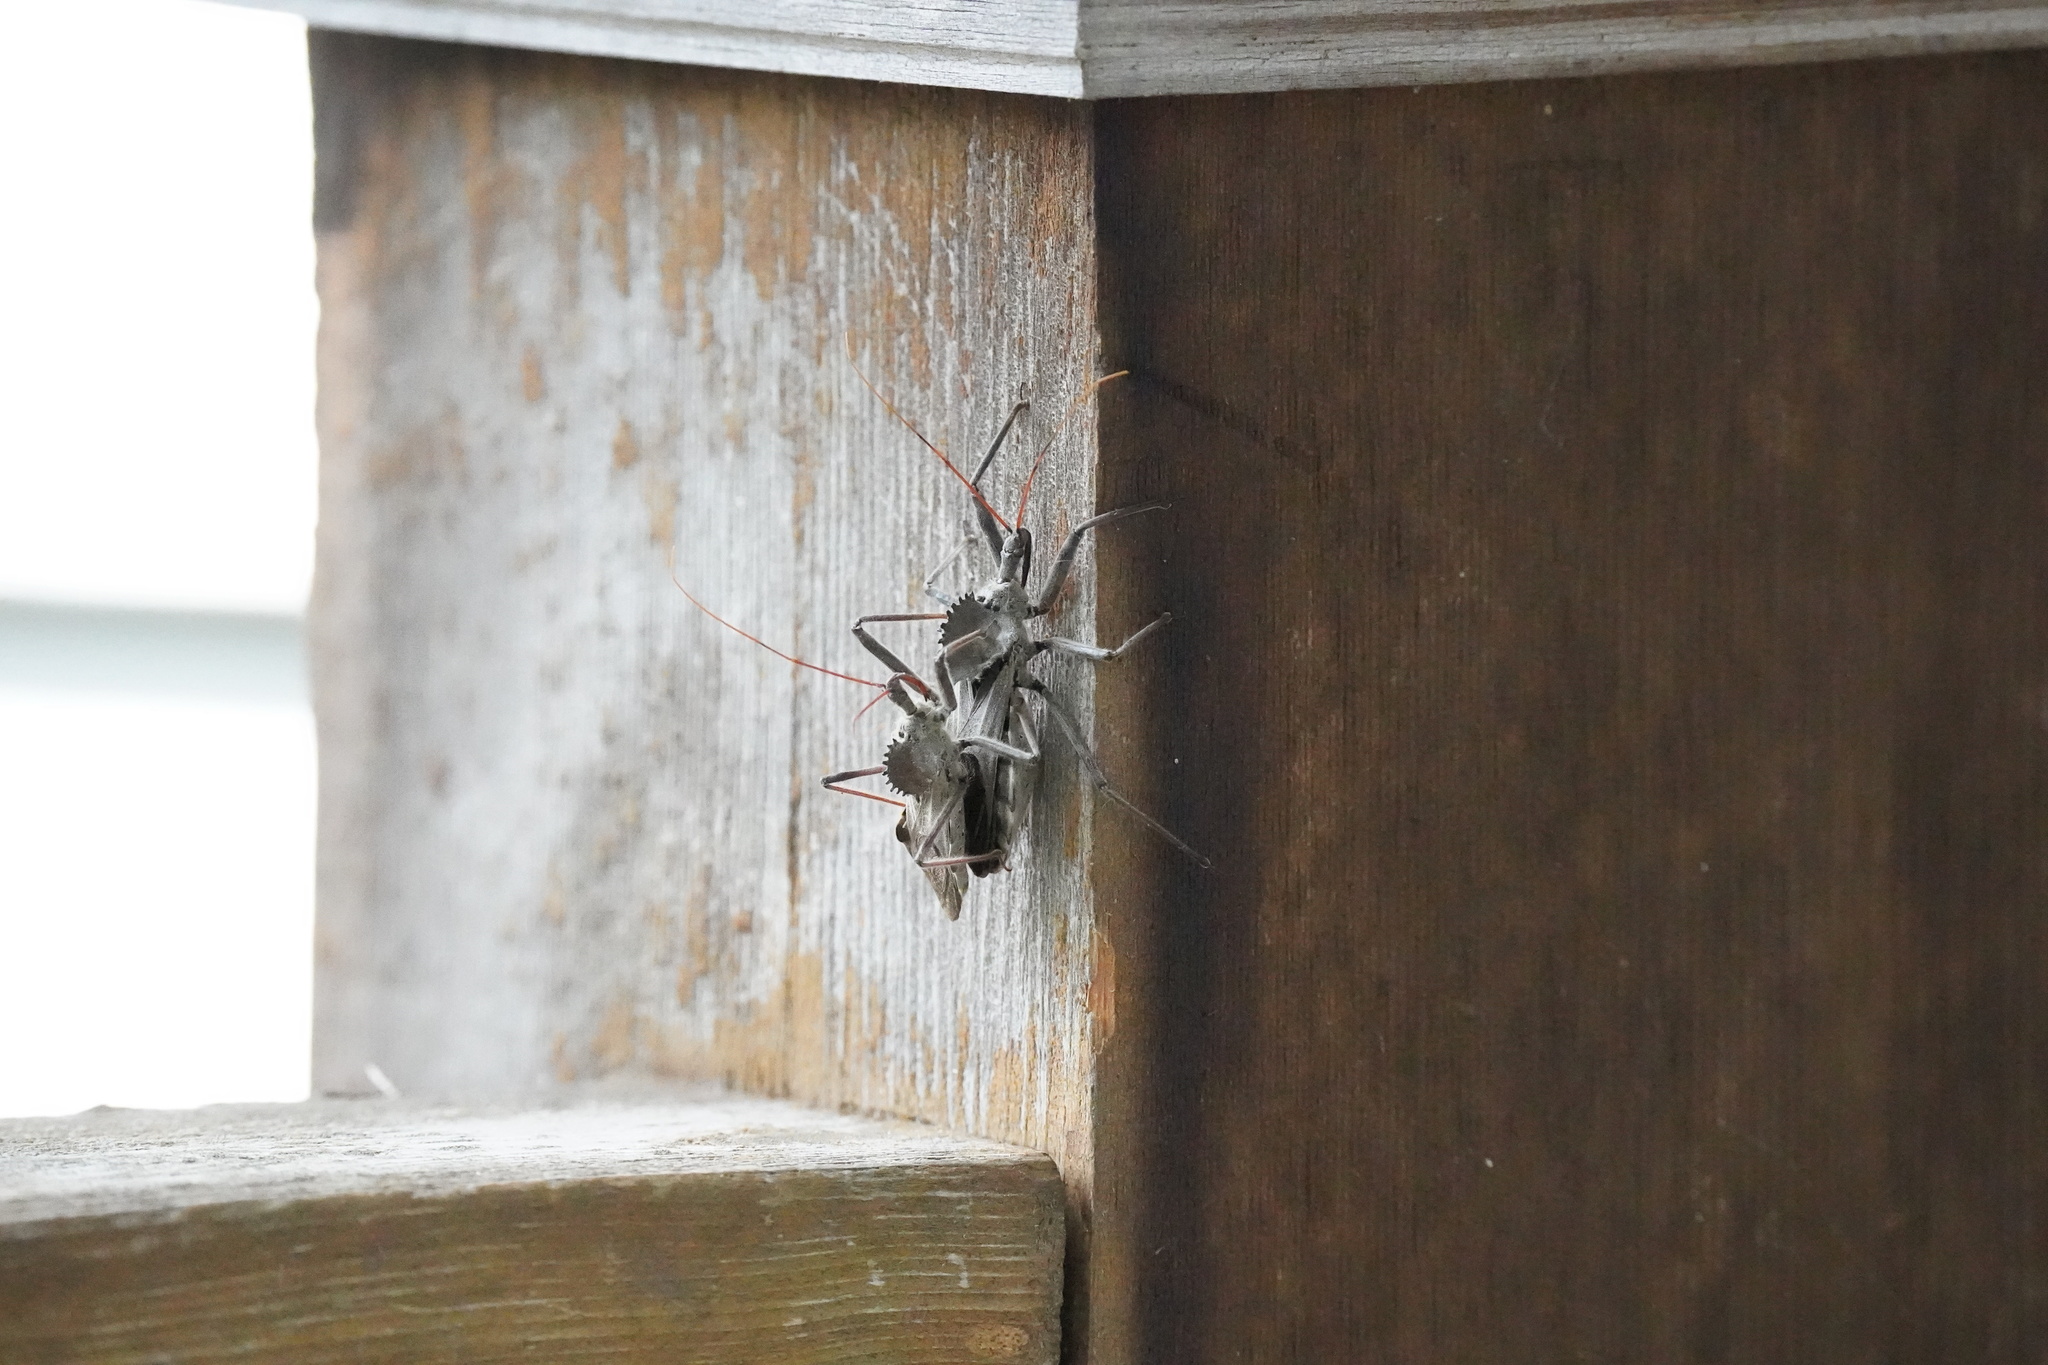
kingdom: Animalia
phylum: Arthropoda
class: Insecta
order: Hemiptera
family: Reduviidae
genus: Arilus
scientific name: Arilus cristatus
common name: North american wheel bug
